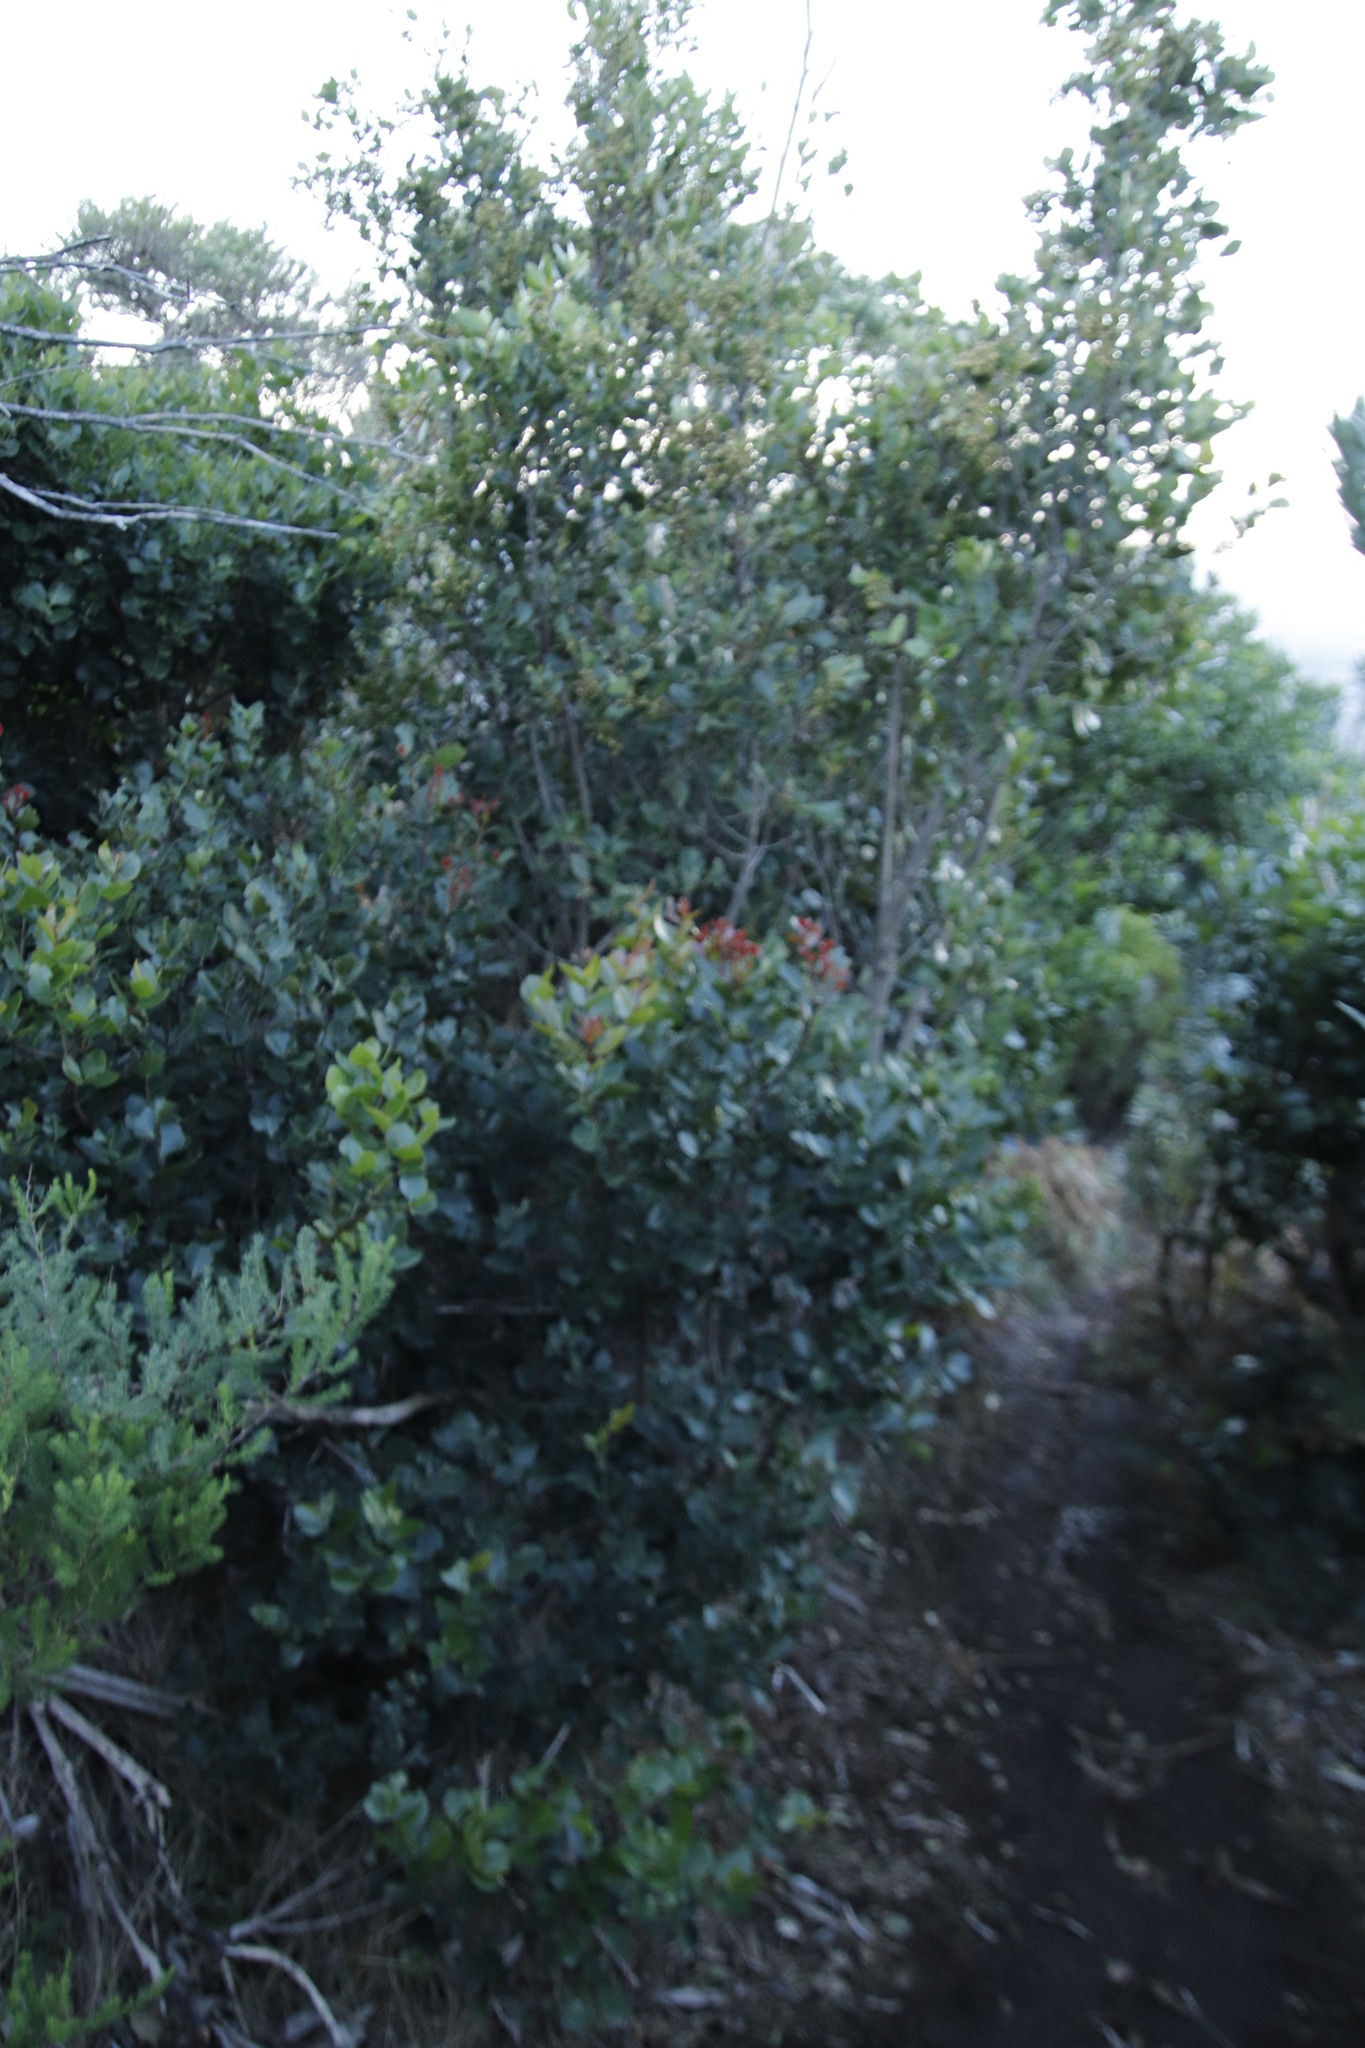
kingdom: Plantae
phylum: Tracheophyta
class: Magnoliopsida
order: Celastrales
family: Celastraceae
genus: Elaeodendron
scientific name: Elaeodendron schinoides
